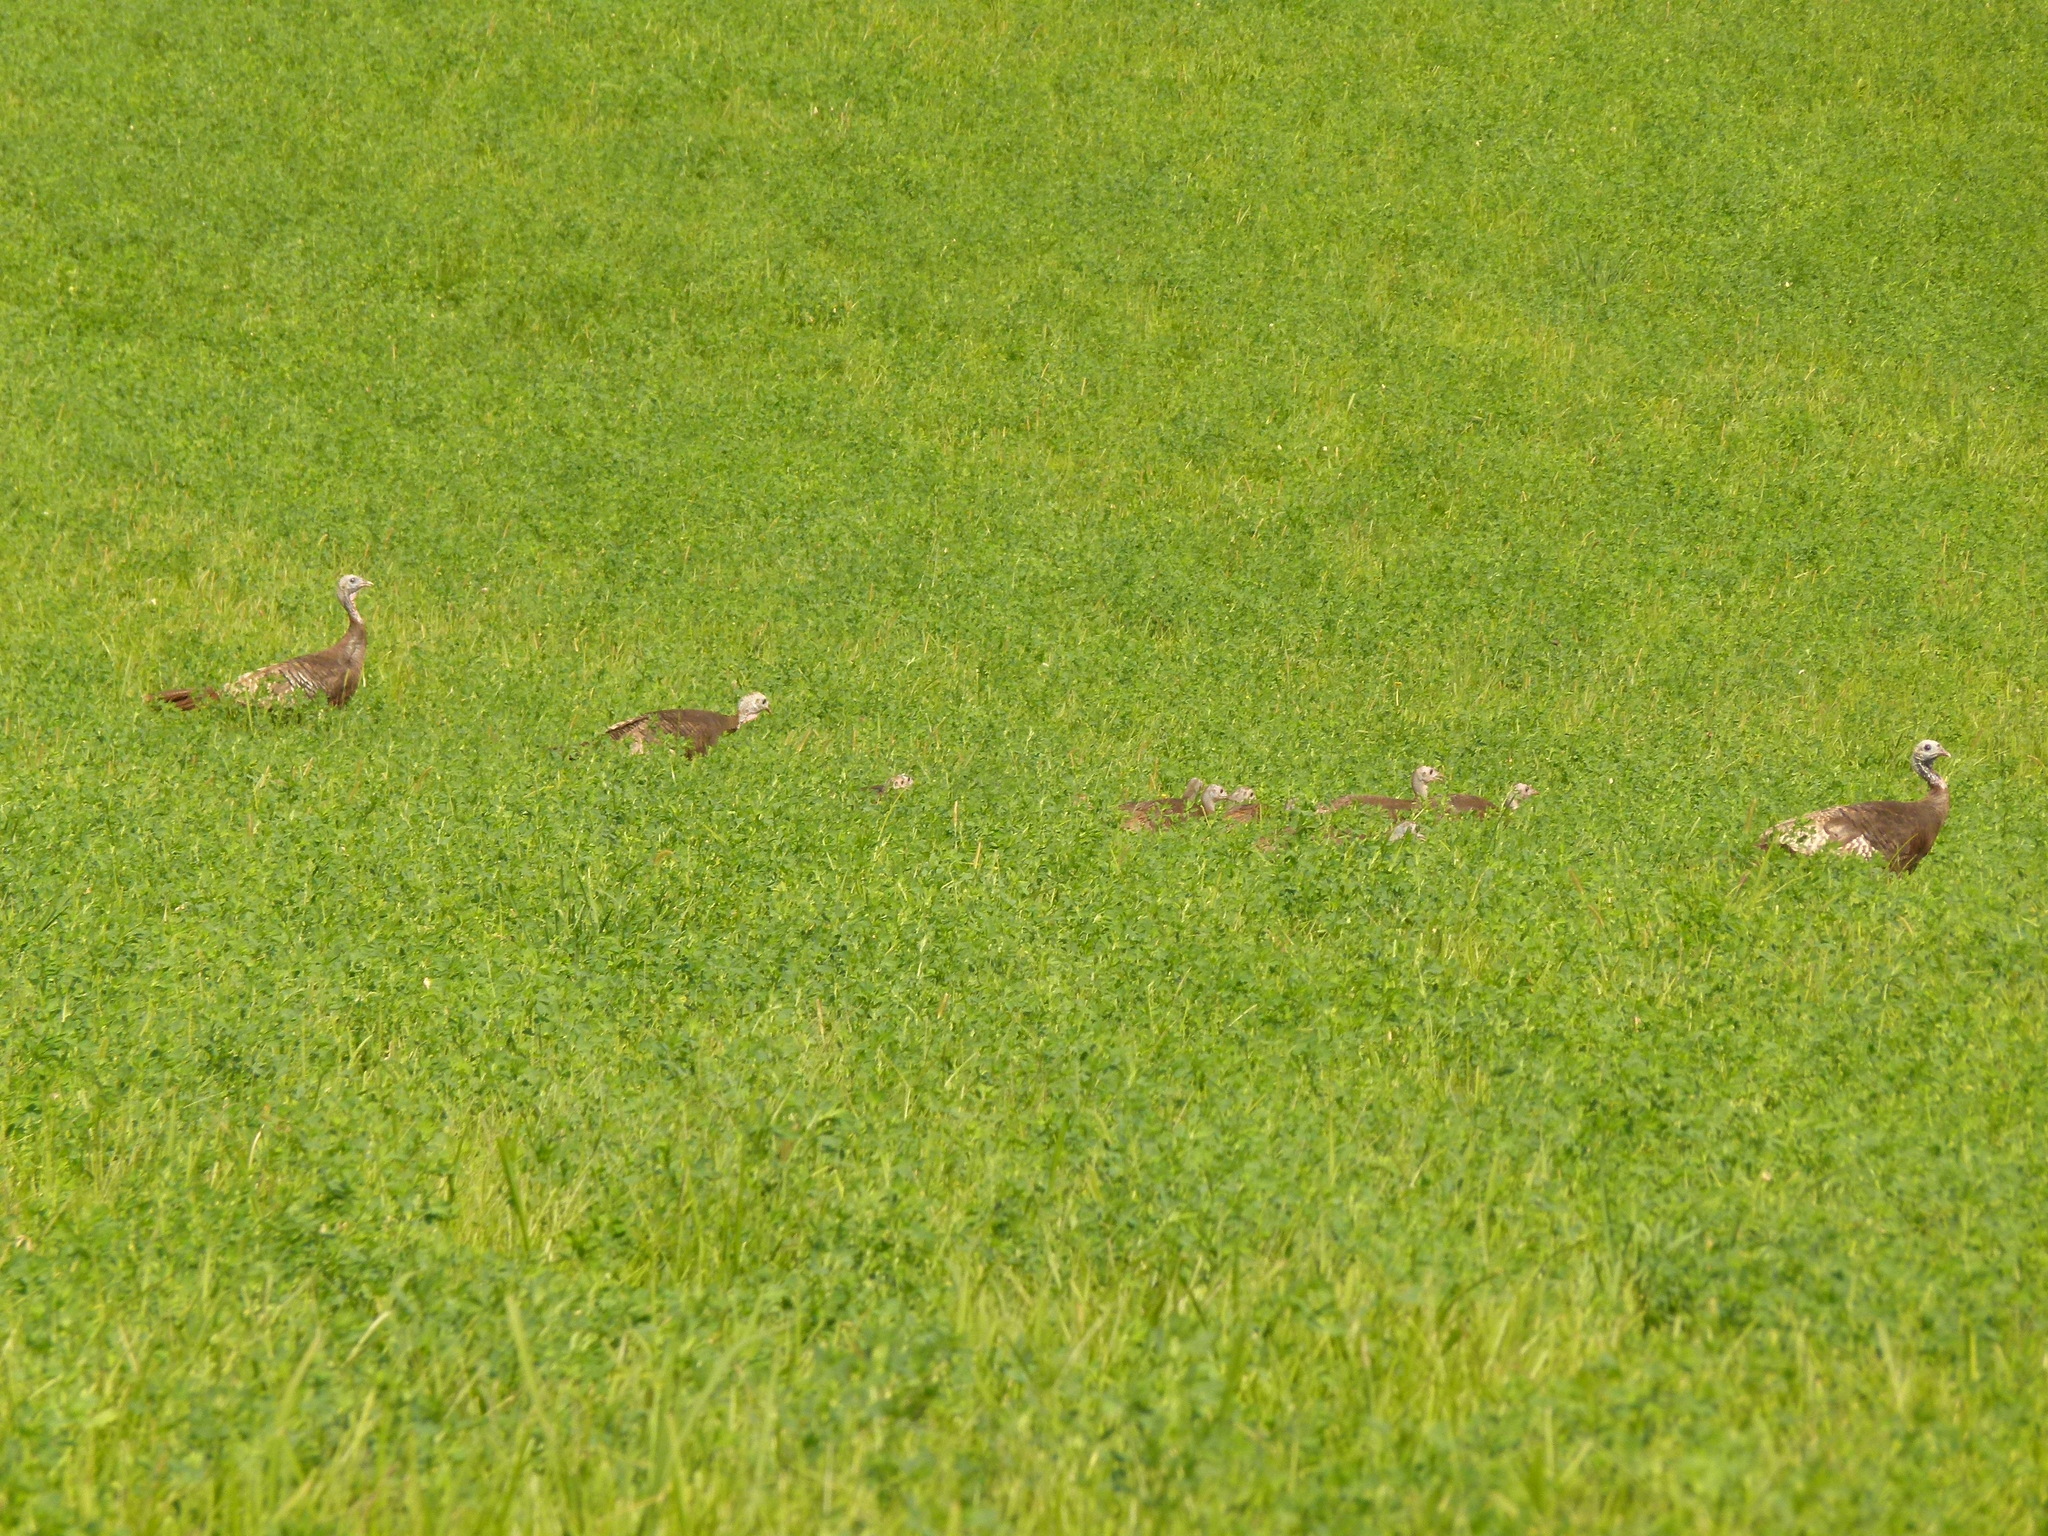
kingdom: Animalia
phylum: Chordata
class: Aves
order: Galliformes
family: Phasianidae
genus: Meleagris
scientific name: Meleagris gallopavo
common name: Wild turkey
